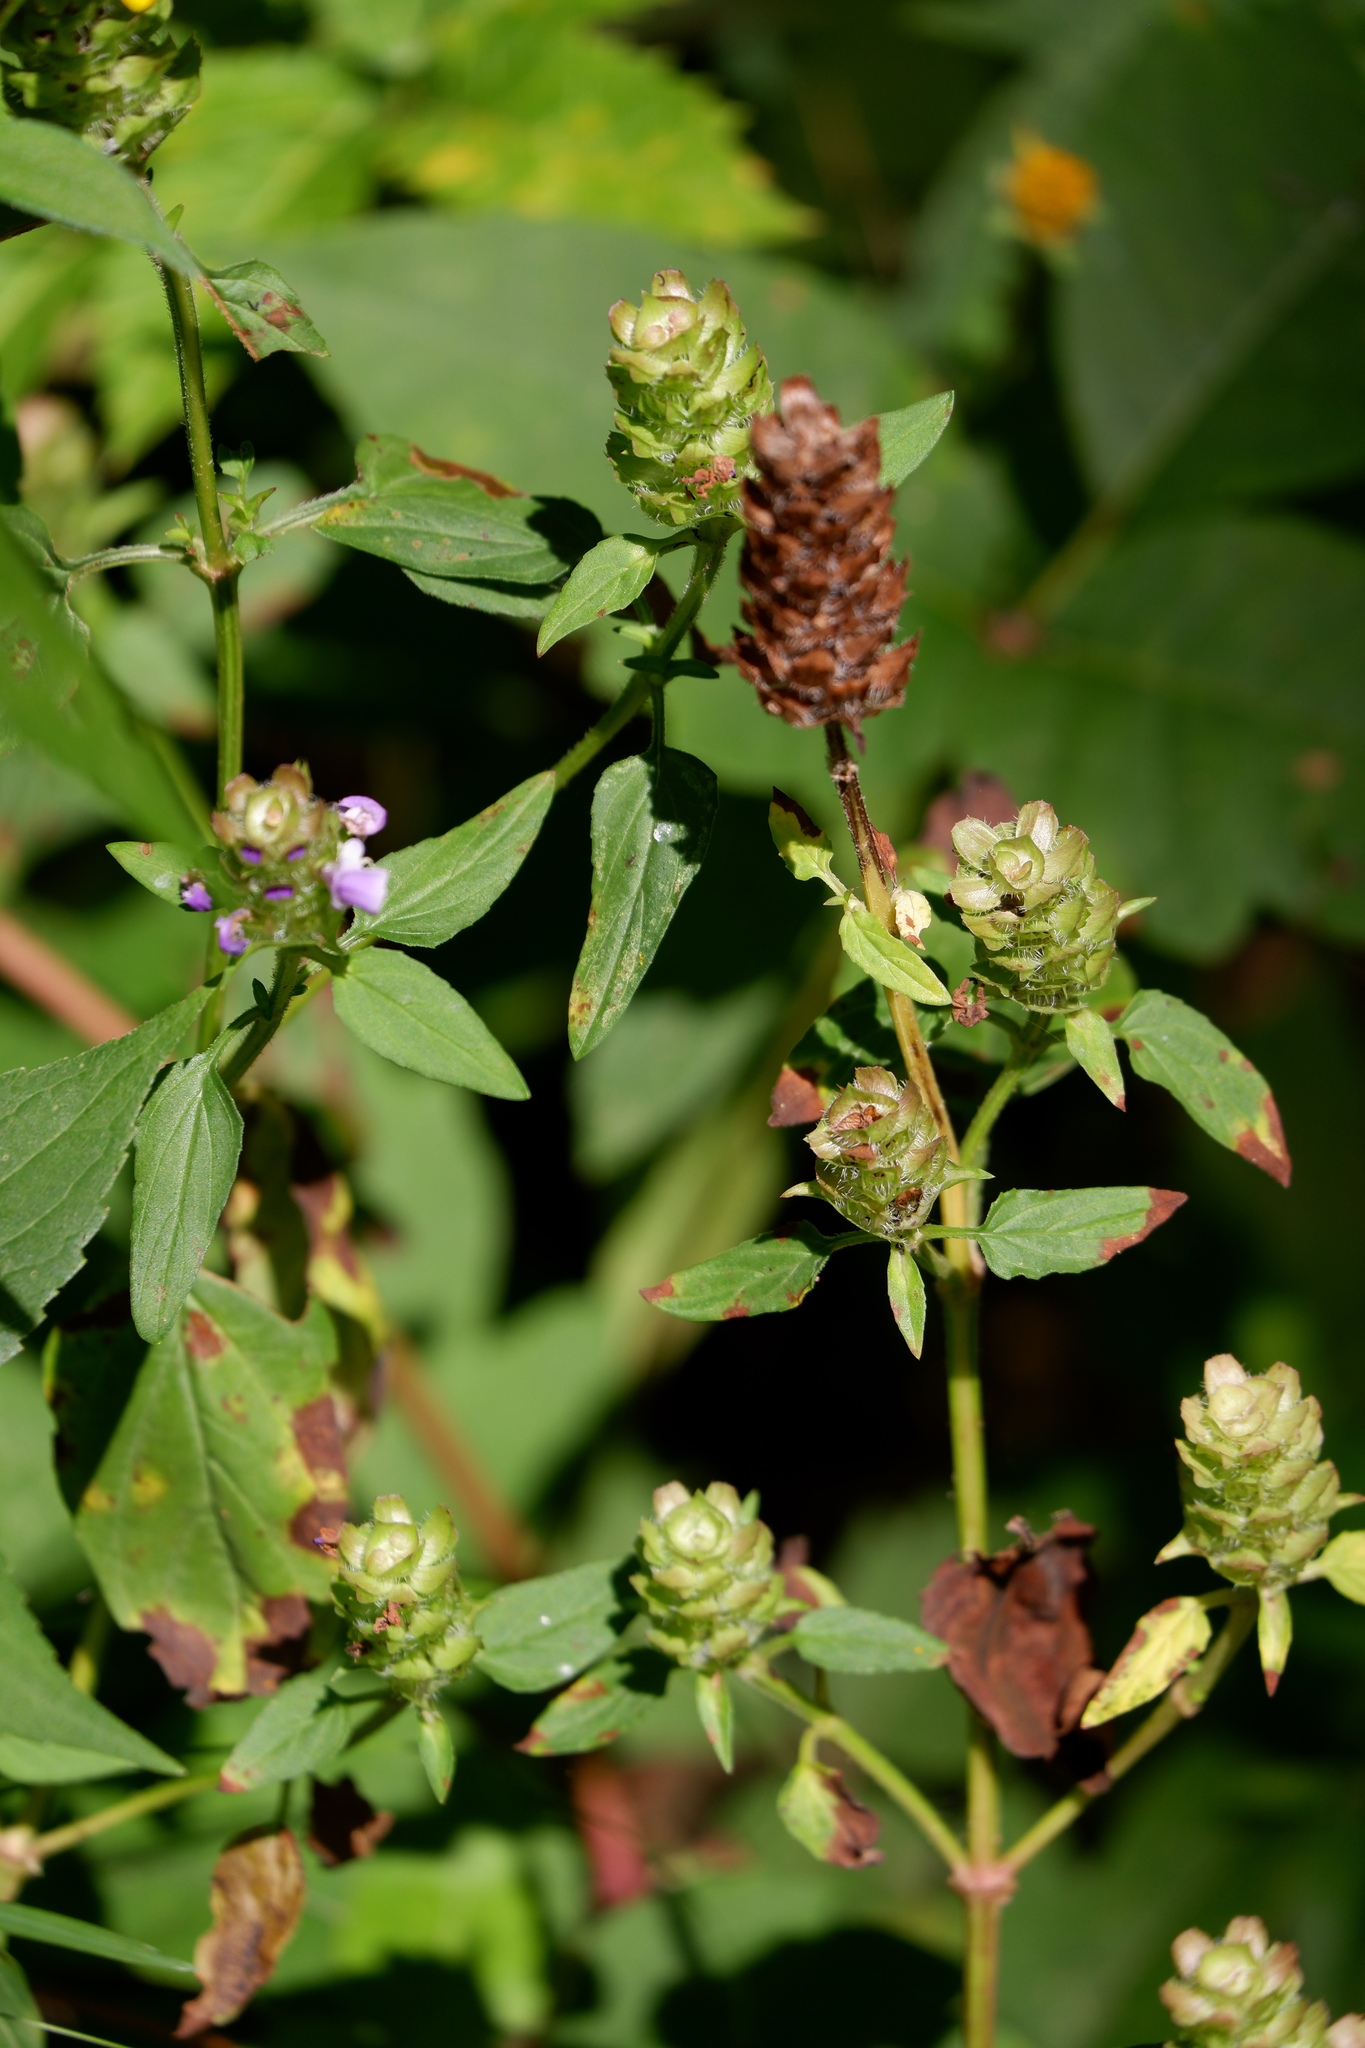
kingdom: Plantae
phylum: Tracheophyta
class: Magnoliopsida
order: Lamiales
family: Lamiaceae
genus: Prunella
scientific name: Prunella vulgaris
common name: Heal-all
